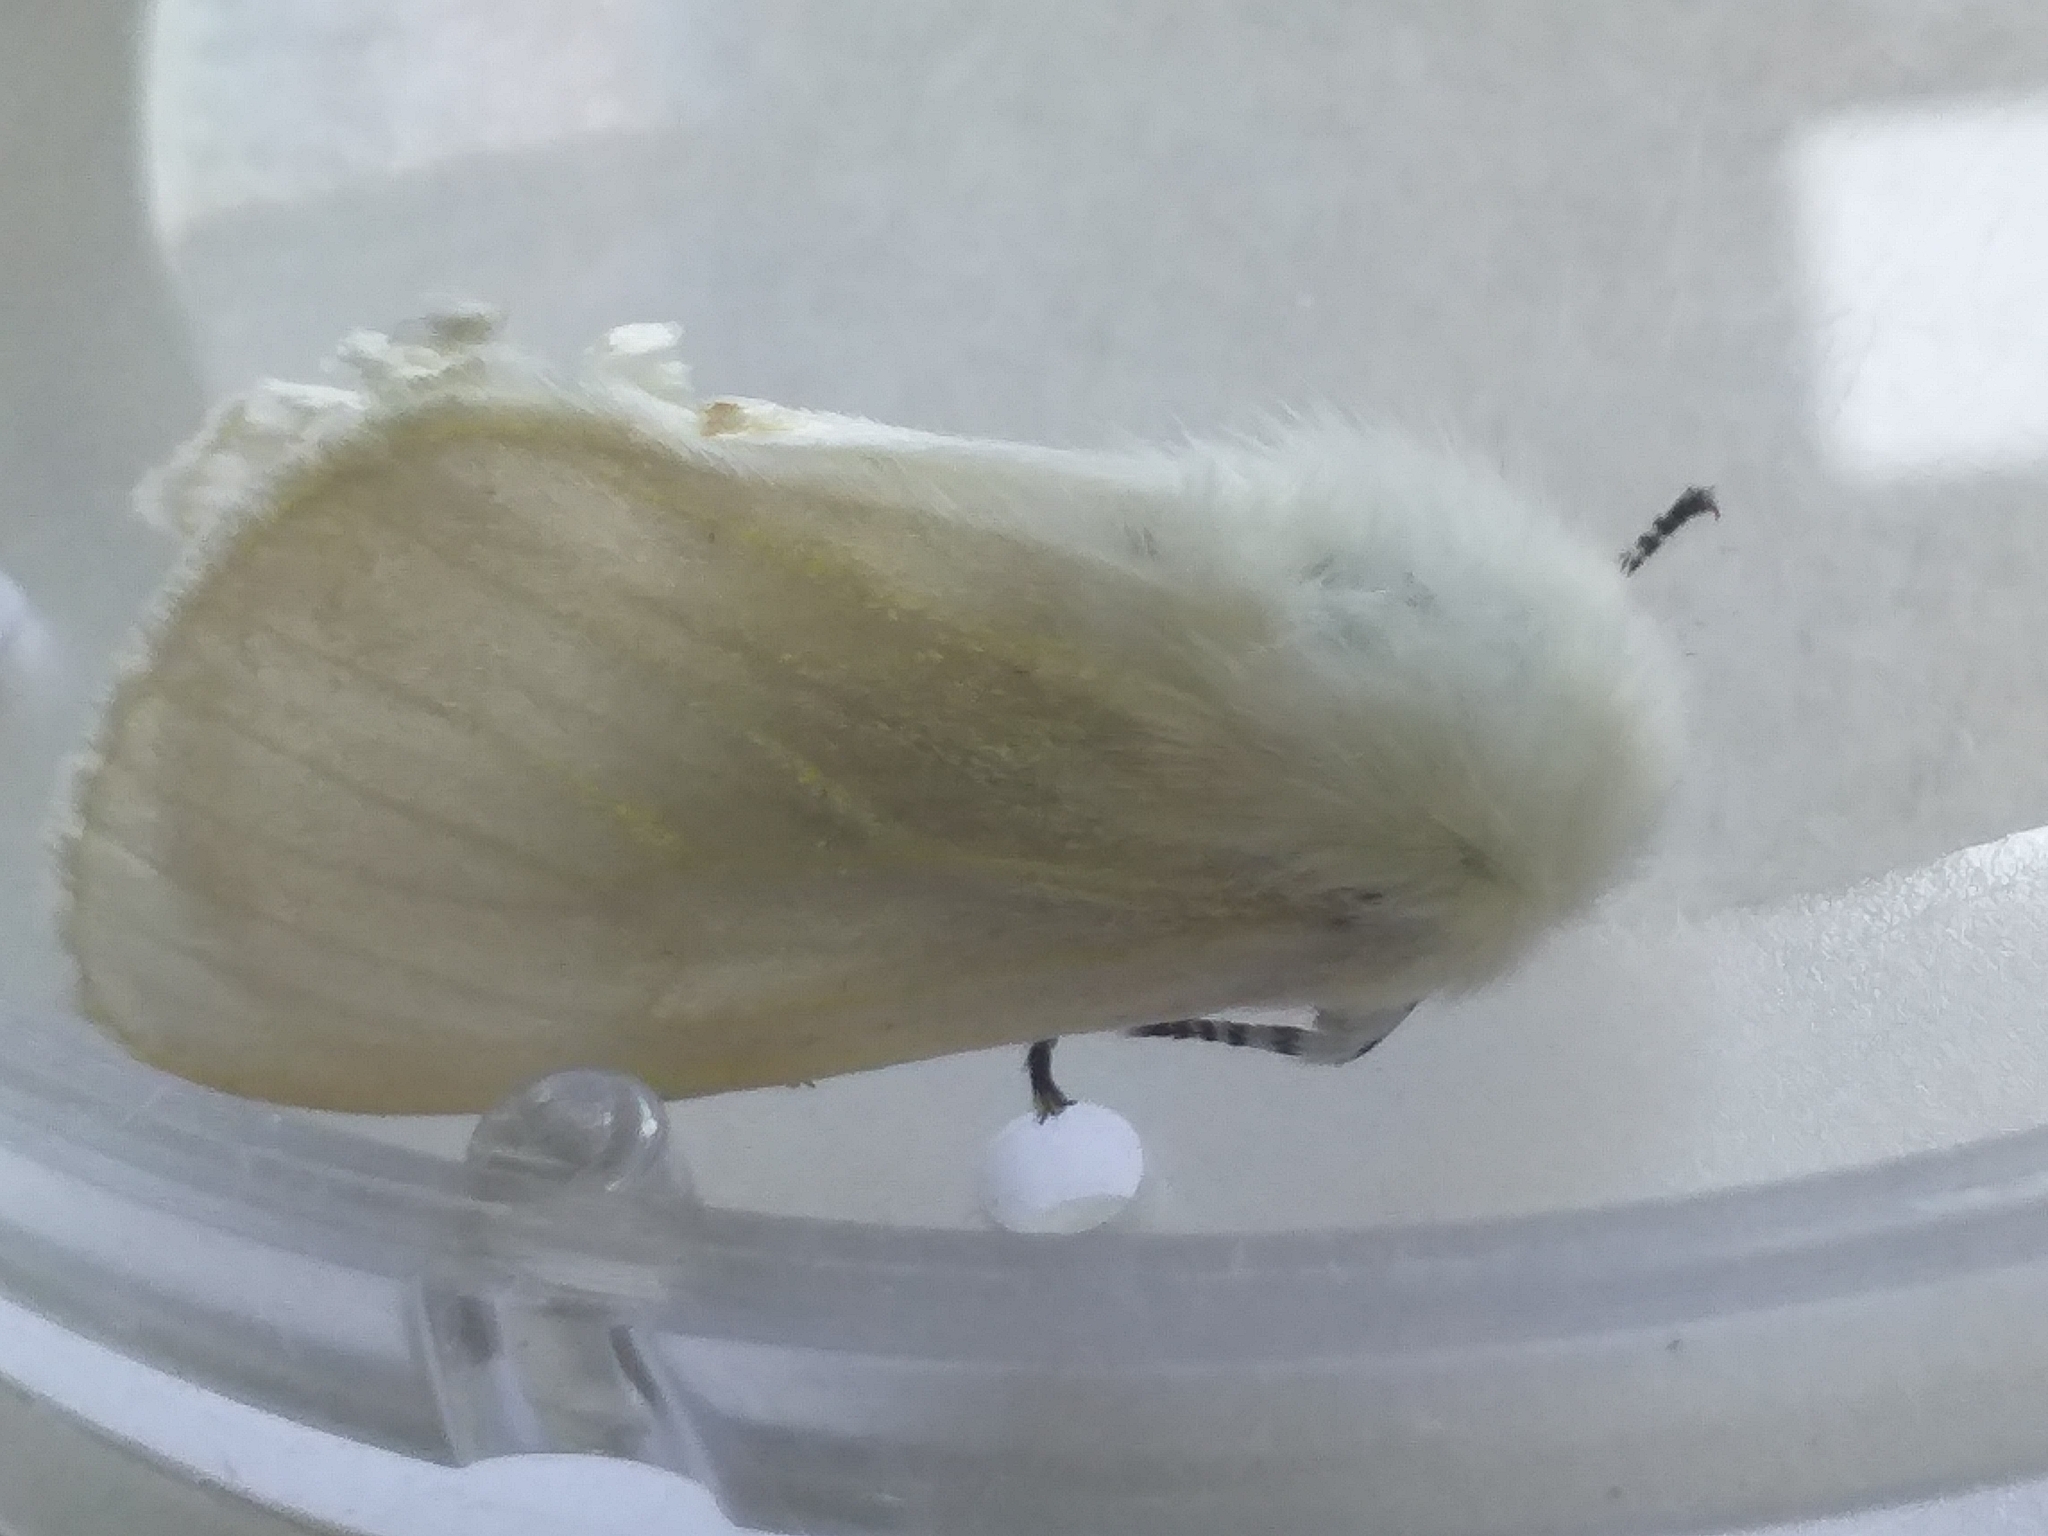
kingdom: Animalia
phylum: Arthropoda
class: Insecta
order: Lepidoptera
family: Erebidae
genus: Leucoma
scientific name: Leucoma salicis
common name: White satin moth
